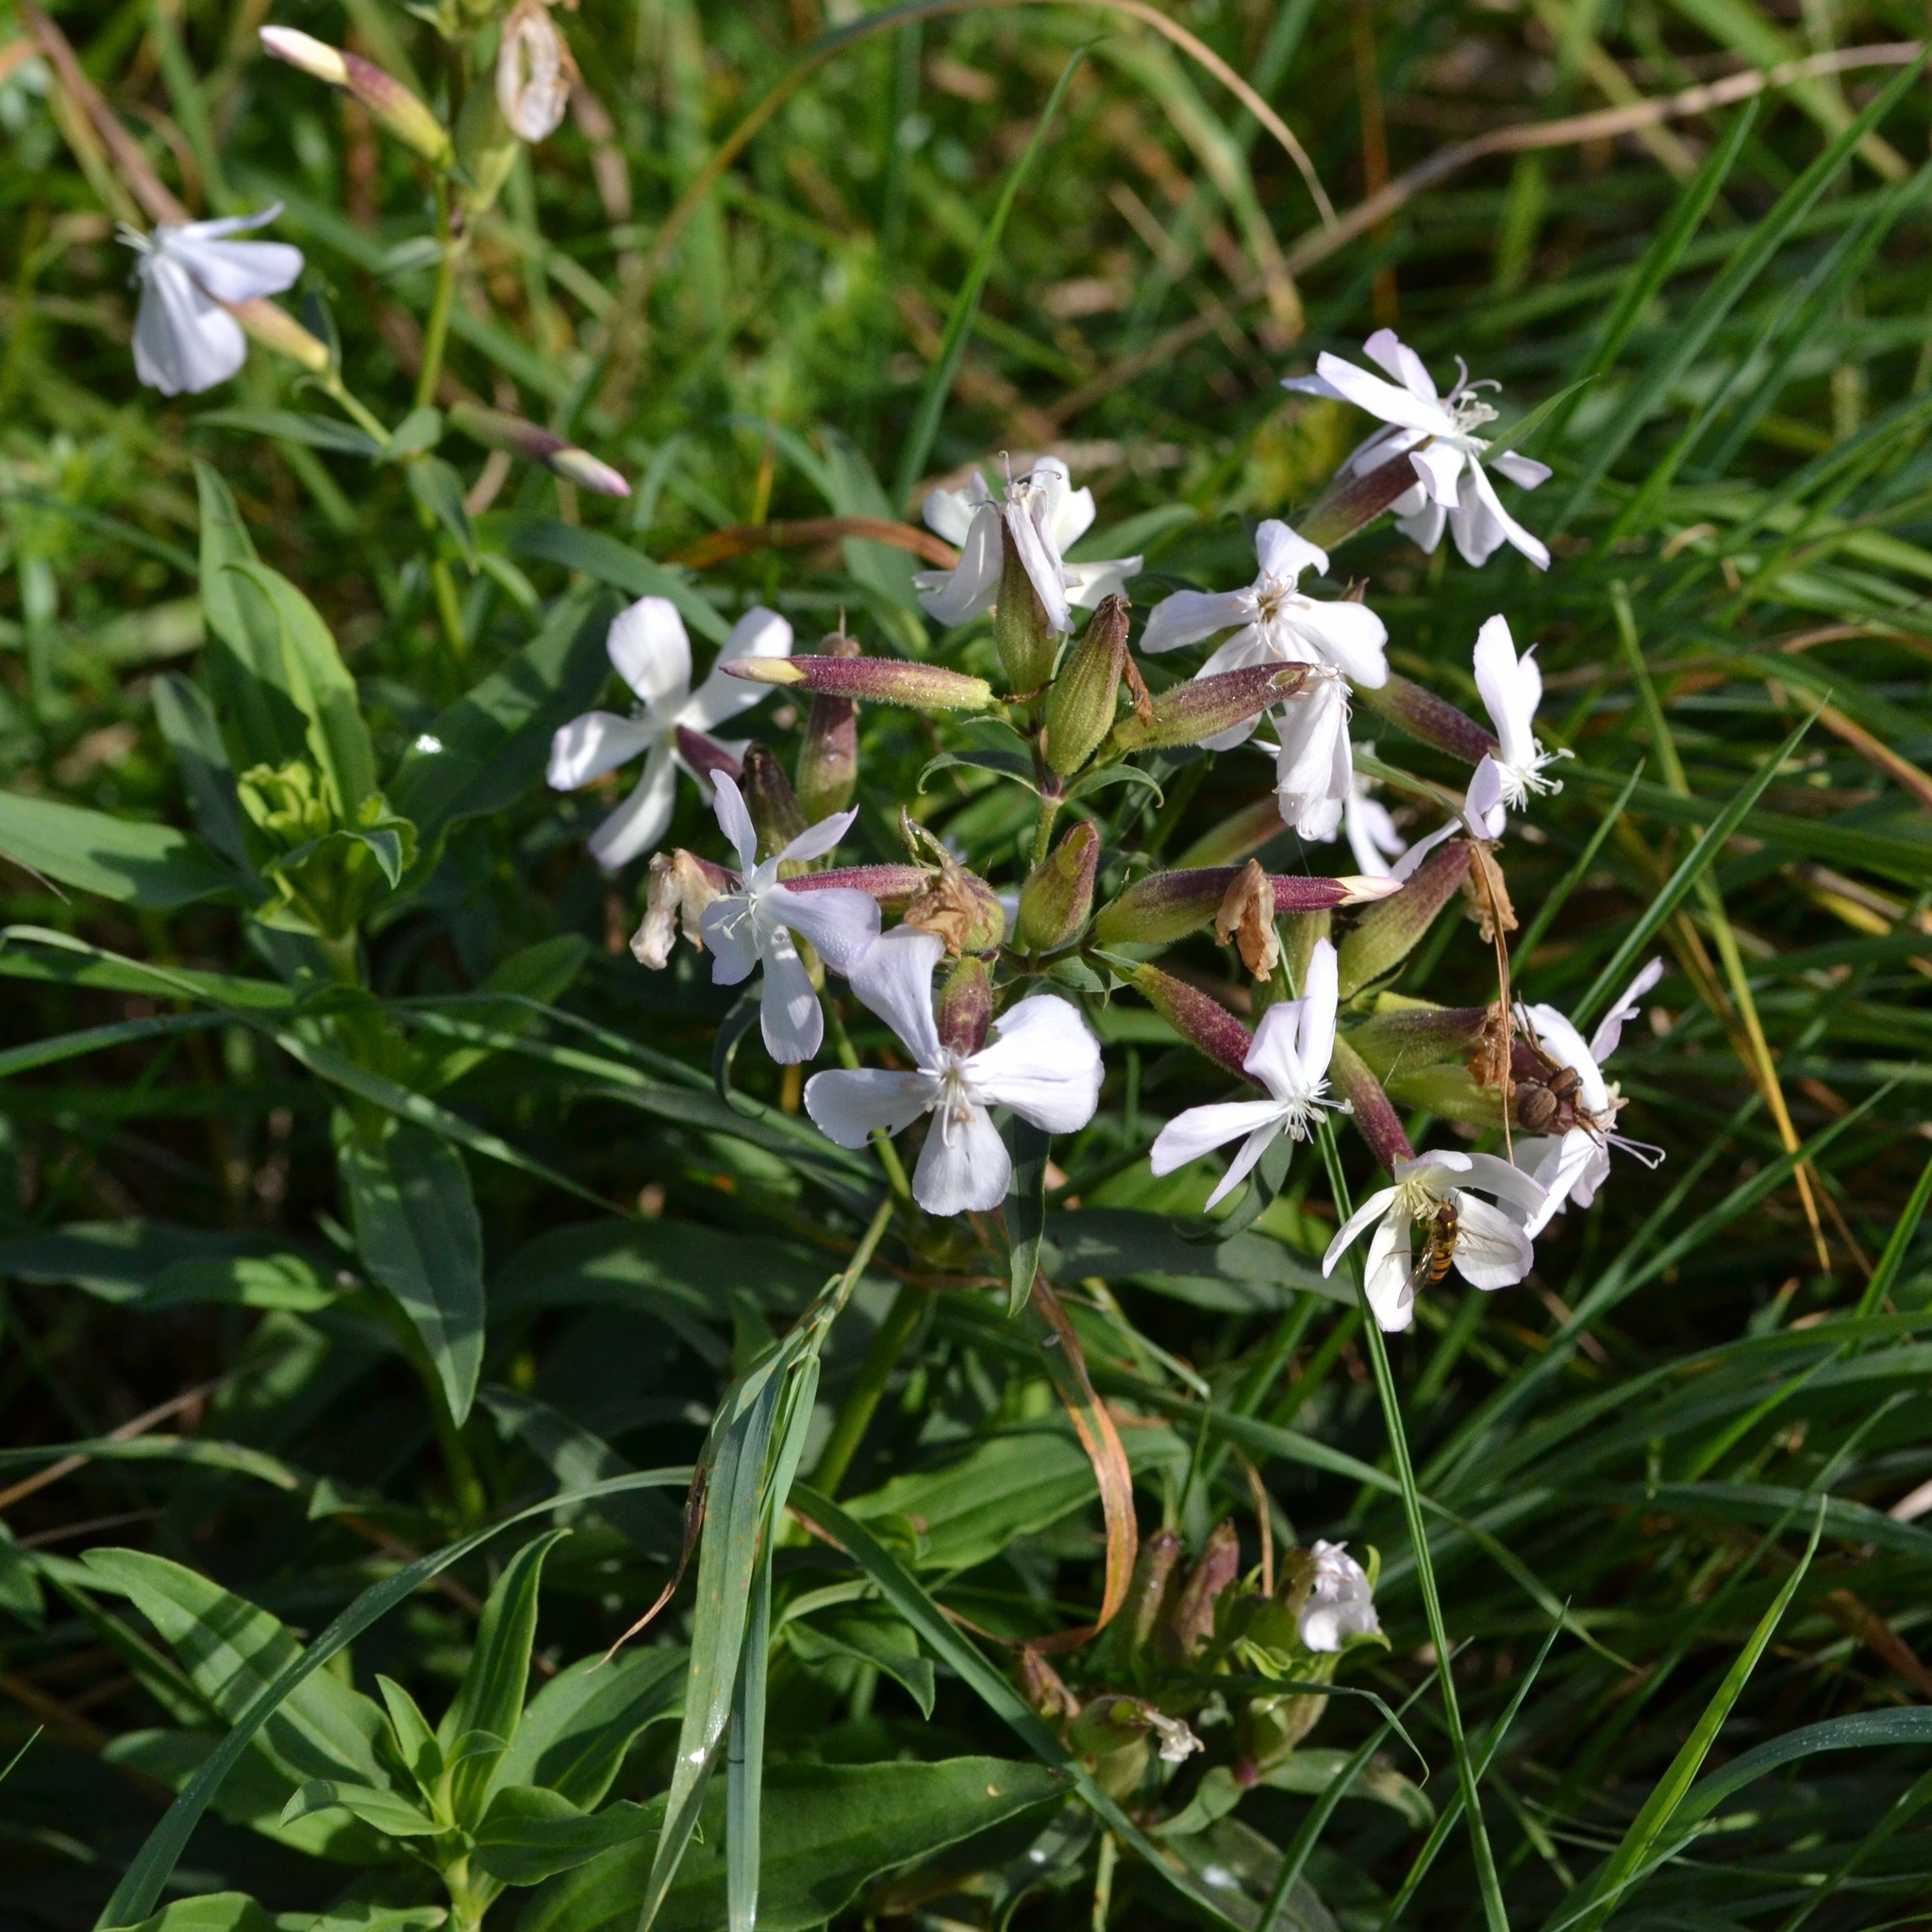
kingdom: Plantae
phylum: Tracheophyta
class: Magnoliopsida
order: Caryophyllales
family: Caryophyllaceae
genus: Saponaria
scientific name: Saponaria officinalis
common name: Soapwort
